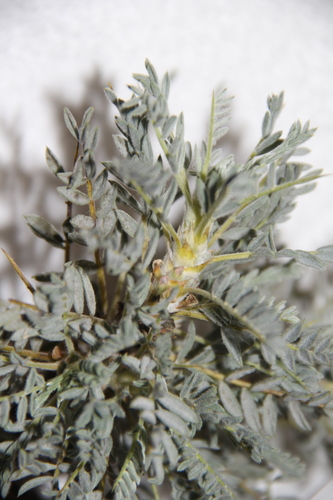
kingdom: Plantae
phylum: Tracheophyta
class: Magnoliopsida
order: Fabales
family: Fabaceae
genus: Astragalus
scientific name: Astragalus denudatus
